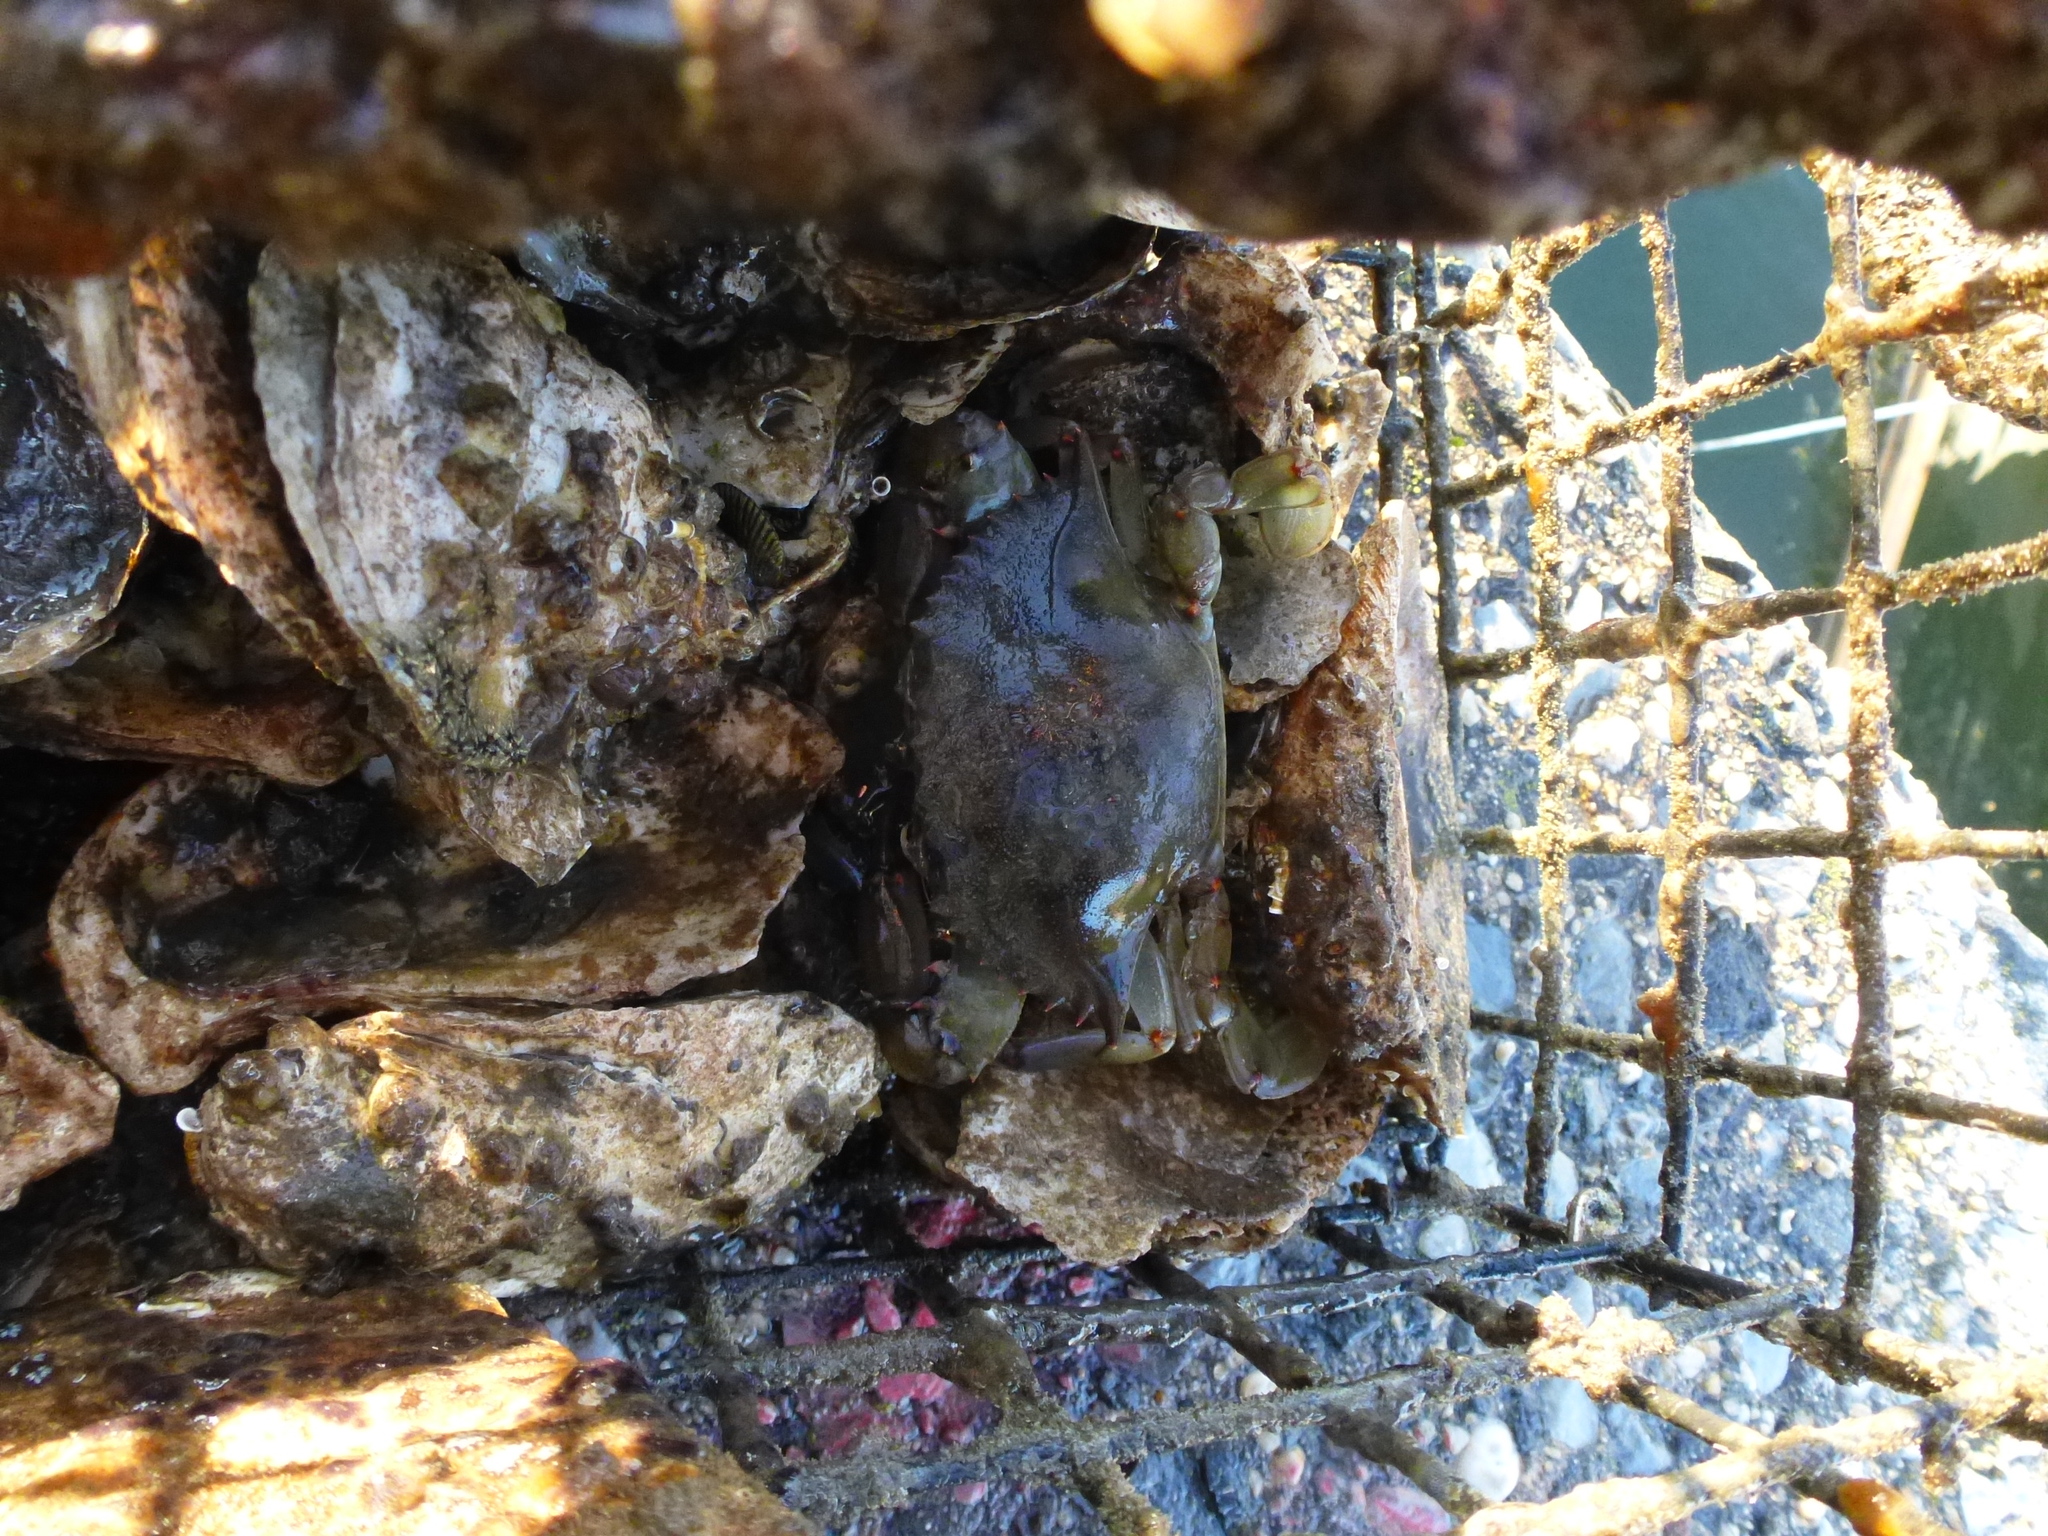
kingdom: Animalia
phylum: Arthropoda
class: Malacostraca
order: Decapoda
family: Portunidae
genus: Callinectes
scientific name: Callinectes sapidus
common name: Blue crab
